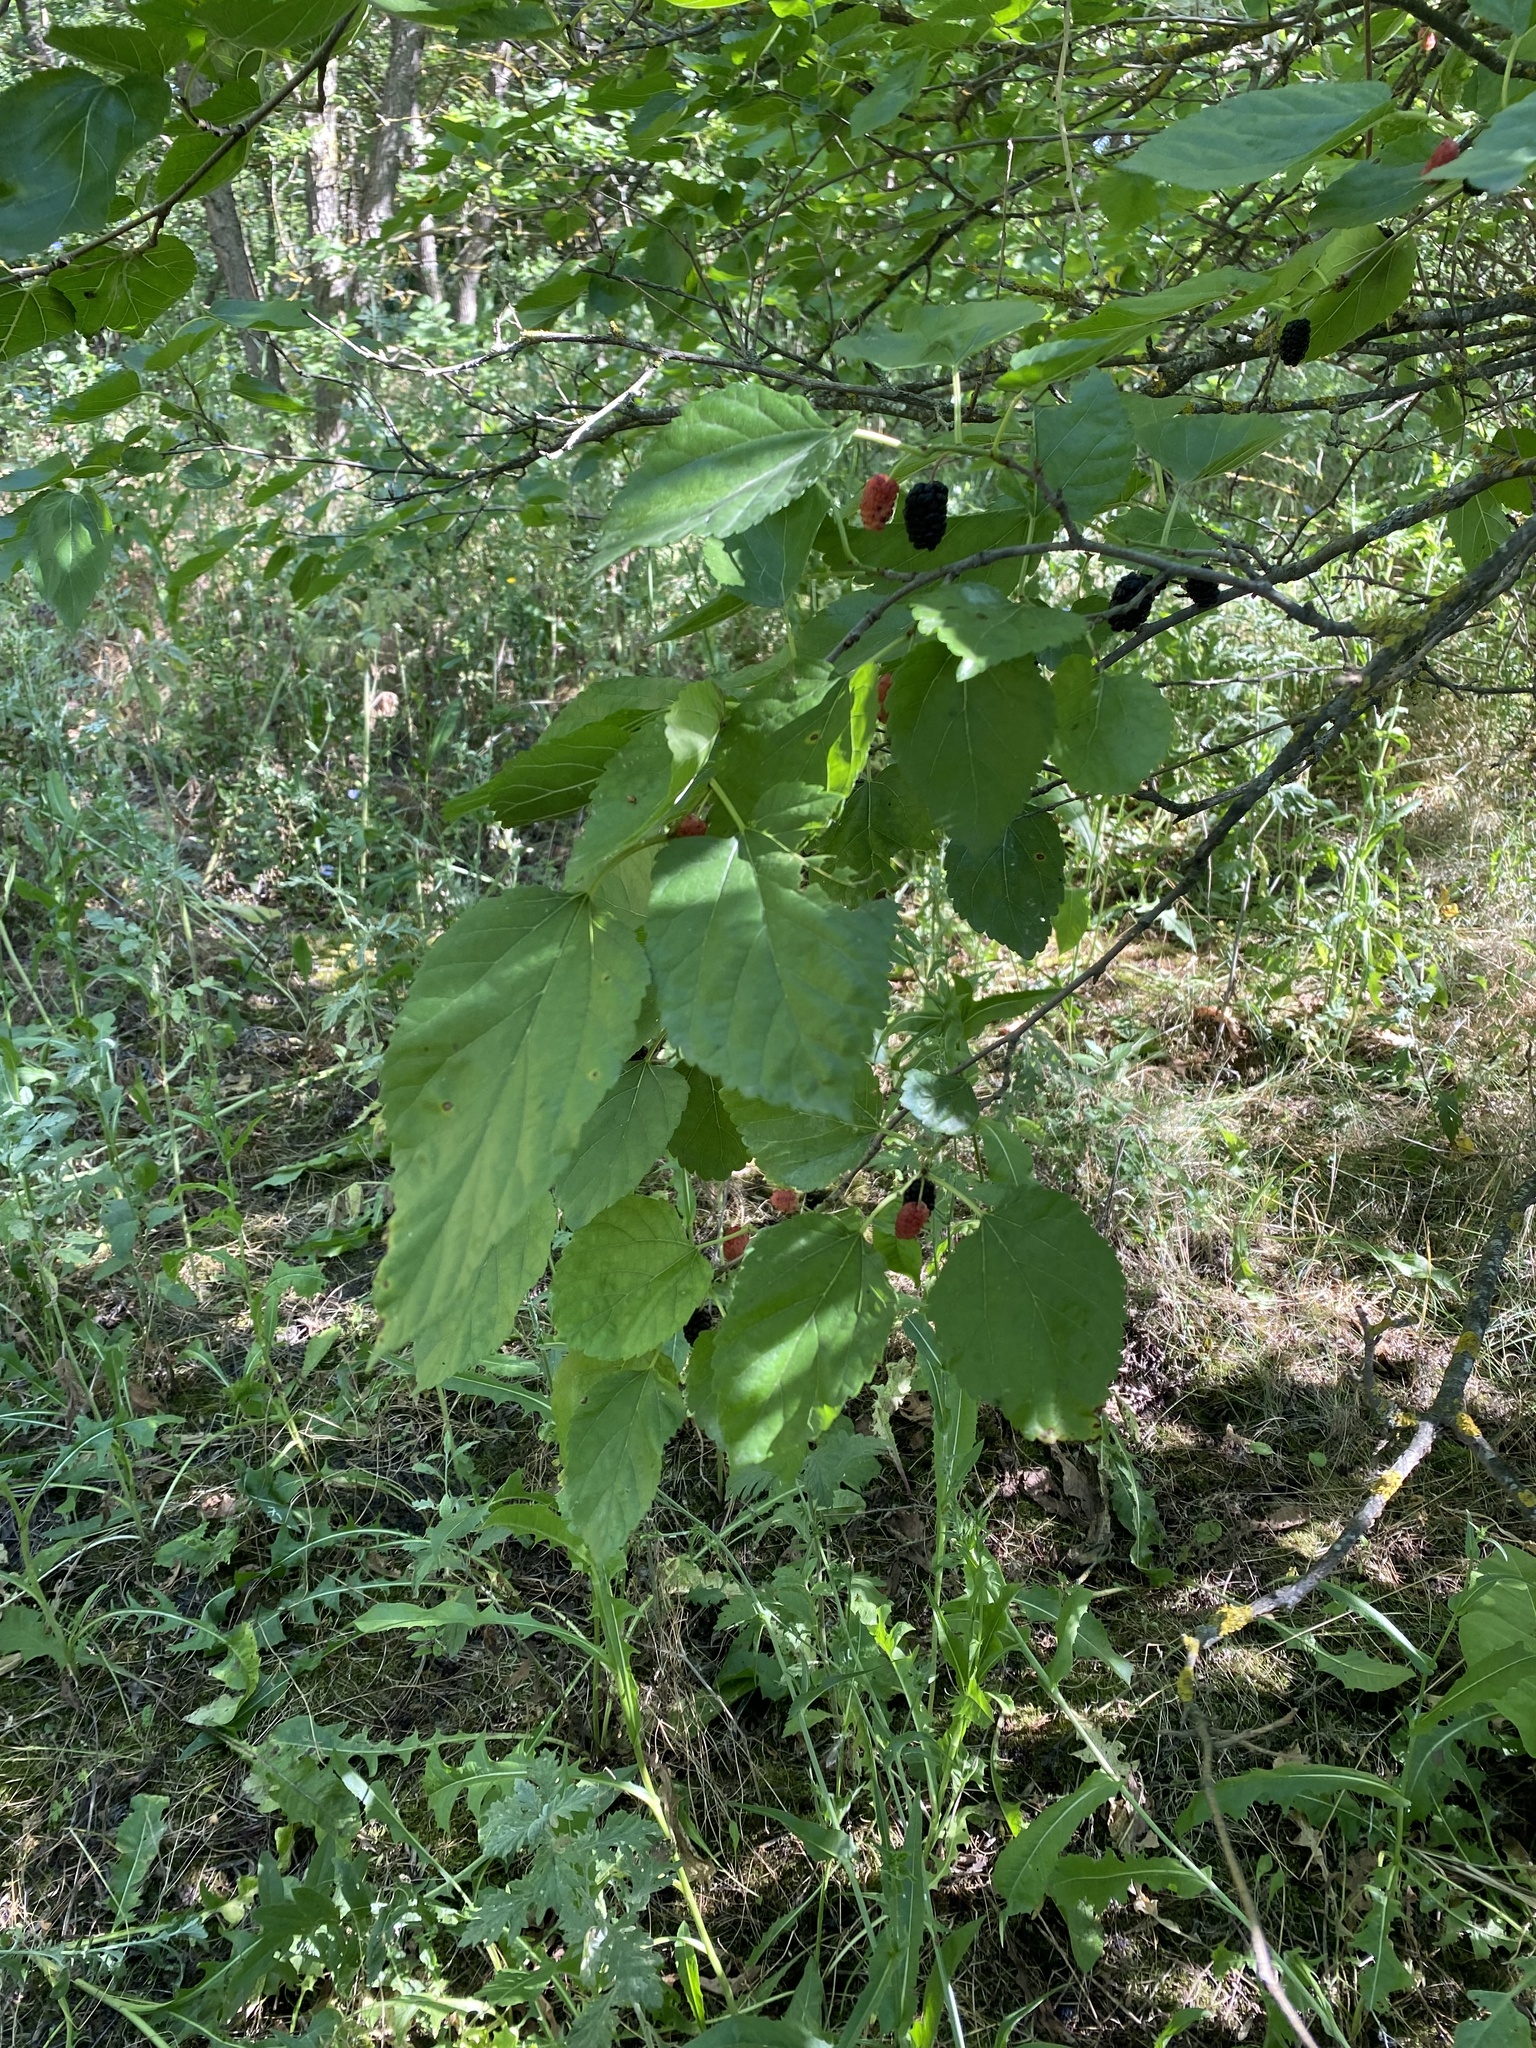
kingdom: Plantae
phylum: Tracheophyta
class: Magnoliopsida
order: Rosales
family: Moraceae
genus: Morus
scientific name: Morus alba
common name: White mulberry
